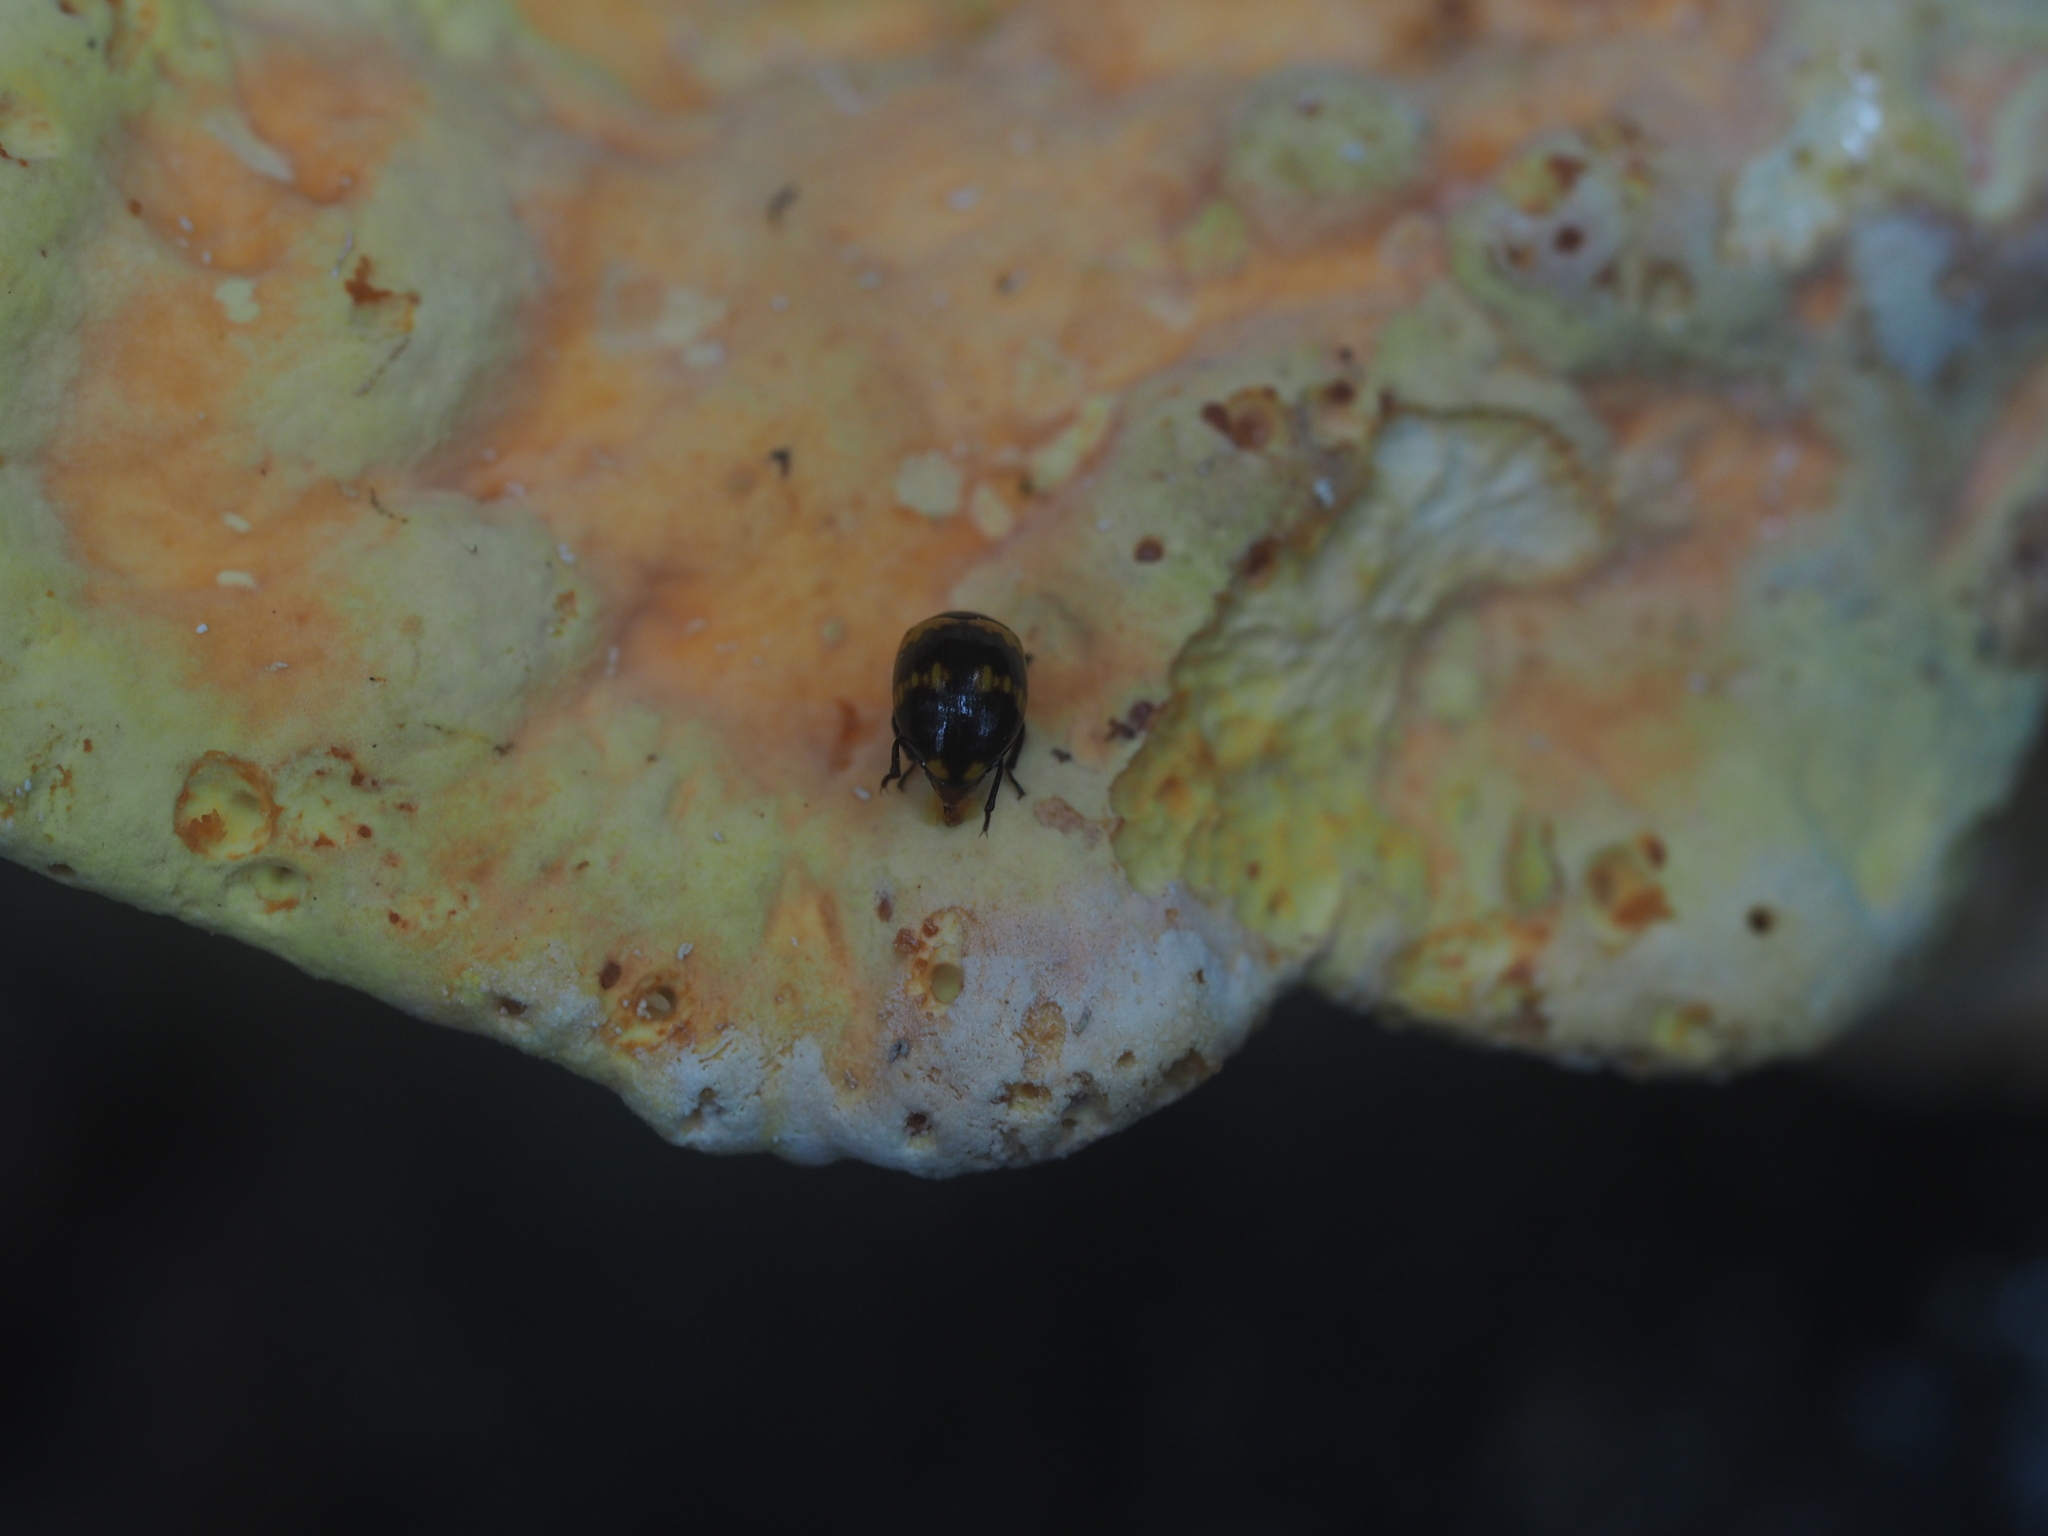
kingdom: Animalia
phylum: Arthropoda
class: Insecta
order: Coleoptera
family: Tenebrionidae
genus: Diaperis
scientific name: Diaperis boleti
